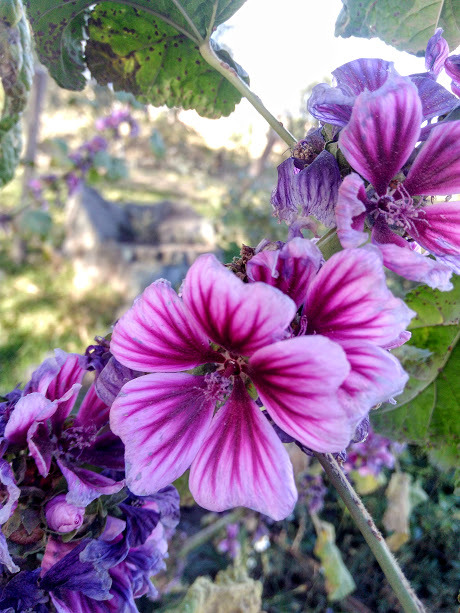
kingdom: Plantae
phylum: Tracheophyta
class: Magnoliopsida
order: Malvales
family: Malvaceae
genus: Malva
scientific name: Malva sylvestris
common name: Common mallow
